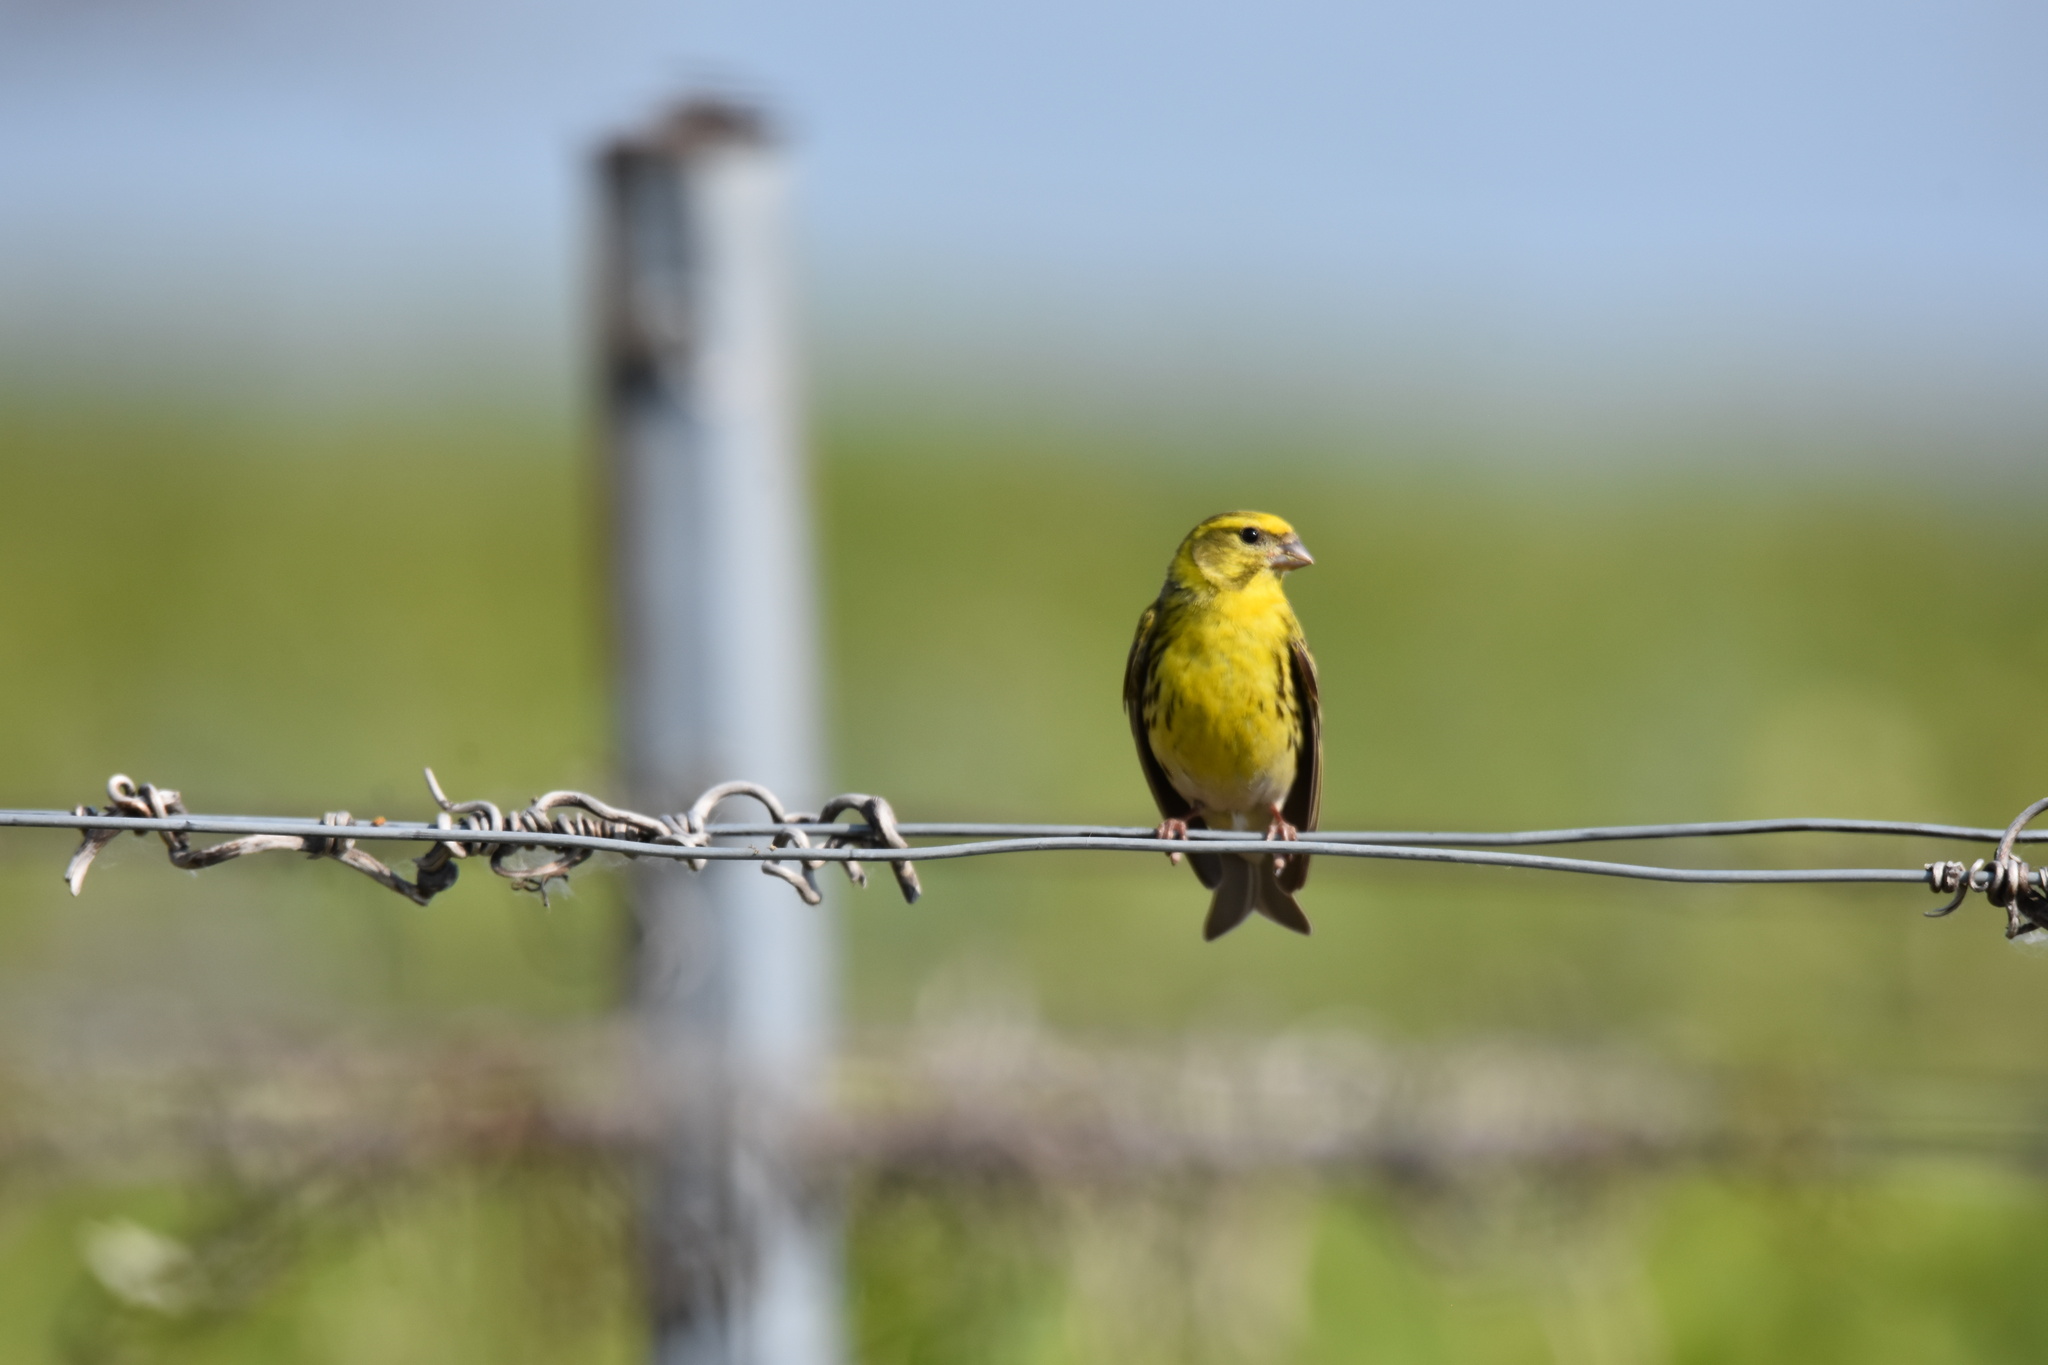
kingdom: Animalia
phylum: Chordata
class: Aves
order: Passeriformes
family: Fringillidae
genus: Serinus
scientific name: Serinus serinus
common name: European serin
